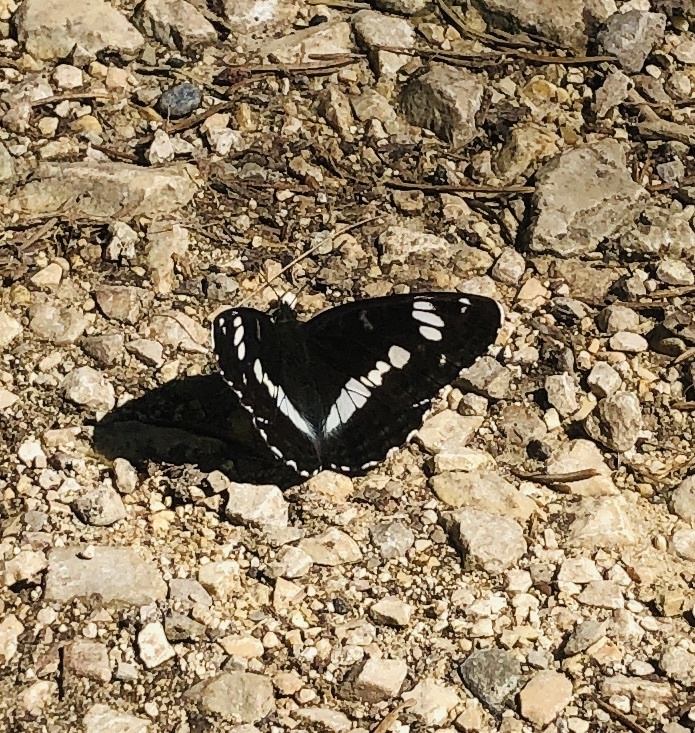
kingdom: Animalia
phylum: Arthropoda
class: Insecta
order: Lepidoptera
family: Nymphalidae
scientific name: Nymphalidae
